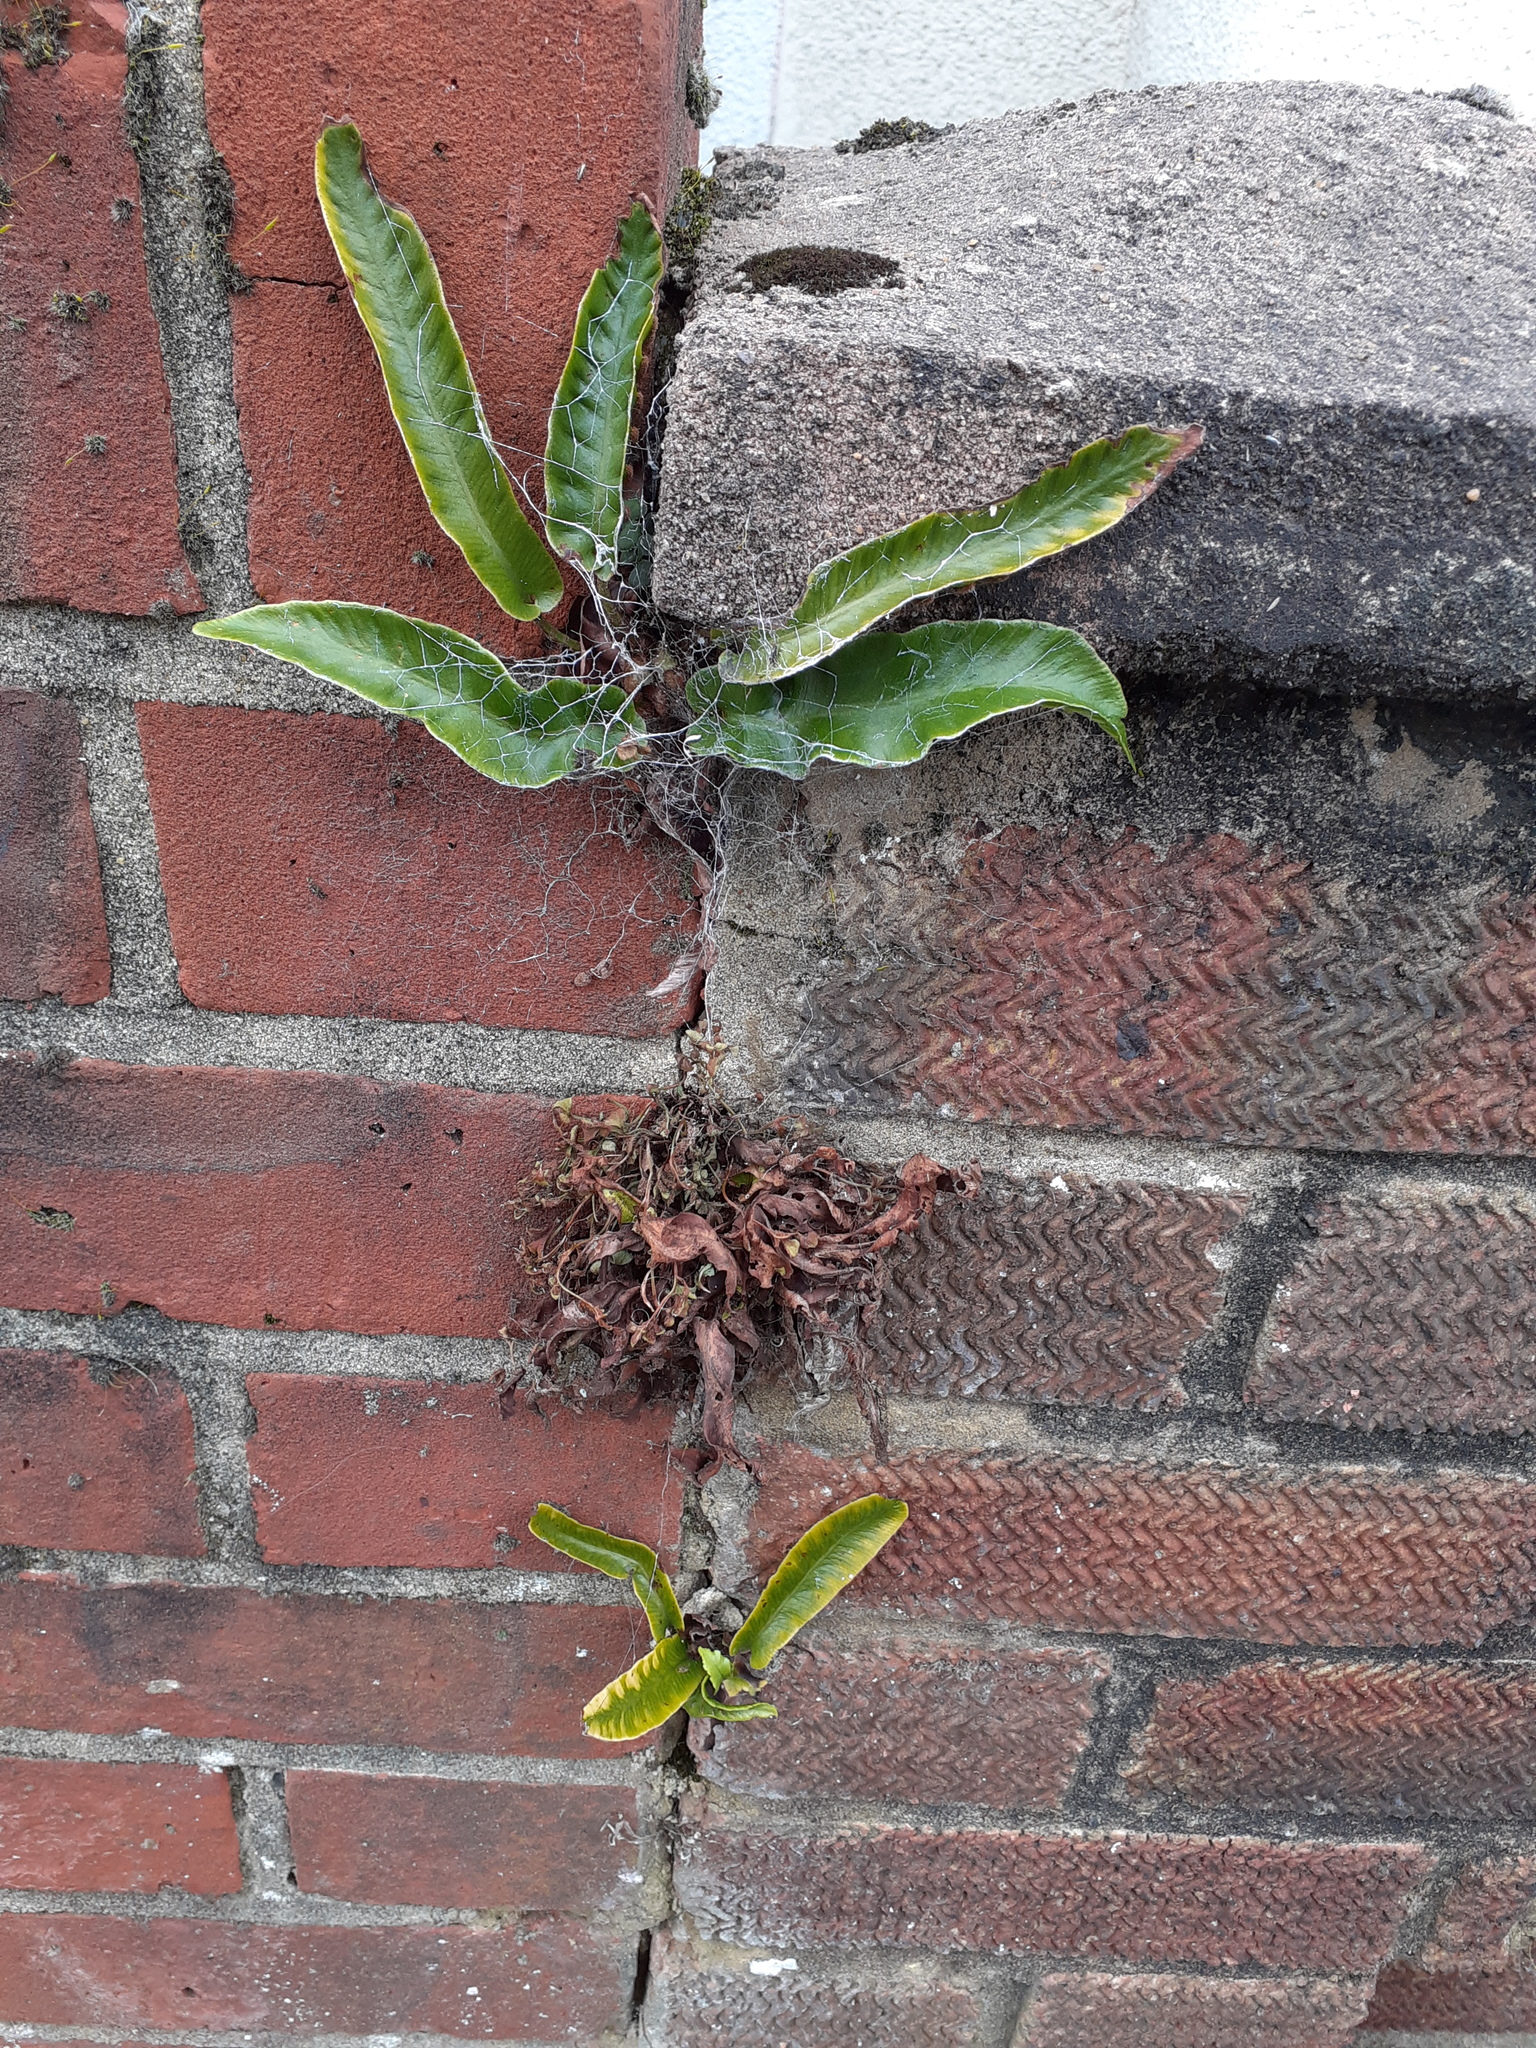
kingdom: Plantae
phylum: Tracheophyta
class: Polypodiopsida
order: Polypodiales
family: Aspleniaceae
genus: Asplenium
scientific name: Asplenium scolopendrium
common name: Hart's-tongue fern
